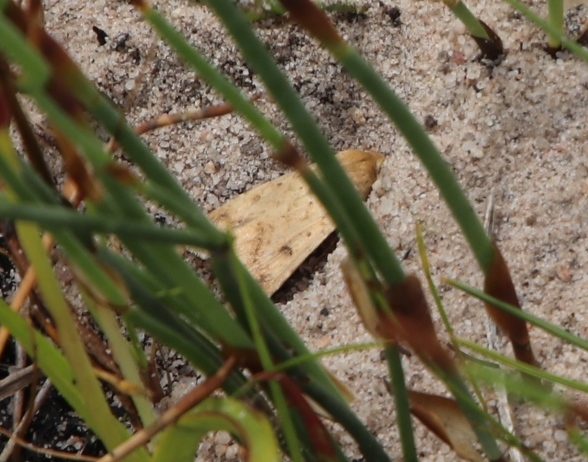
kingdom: Animalia
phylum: Arthropoda
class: Insecta
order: Lepidoptera
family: Noctuidae
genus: Helicoverpa
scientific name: Helicoverpa armigera
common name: Cotton bollworm
